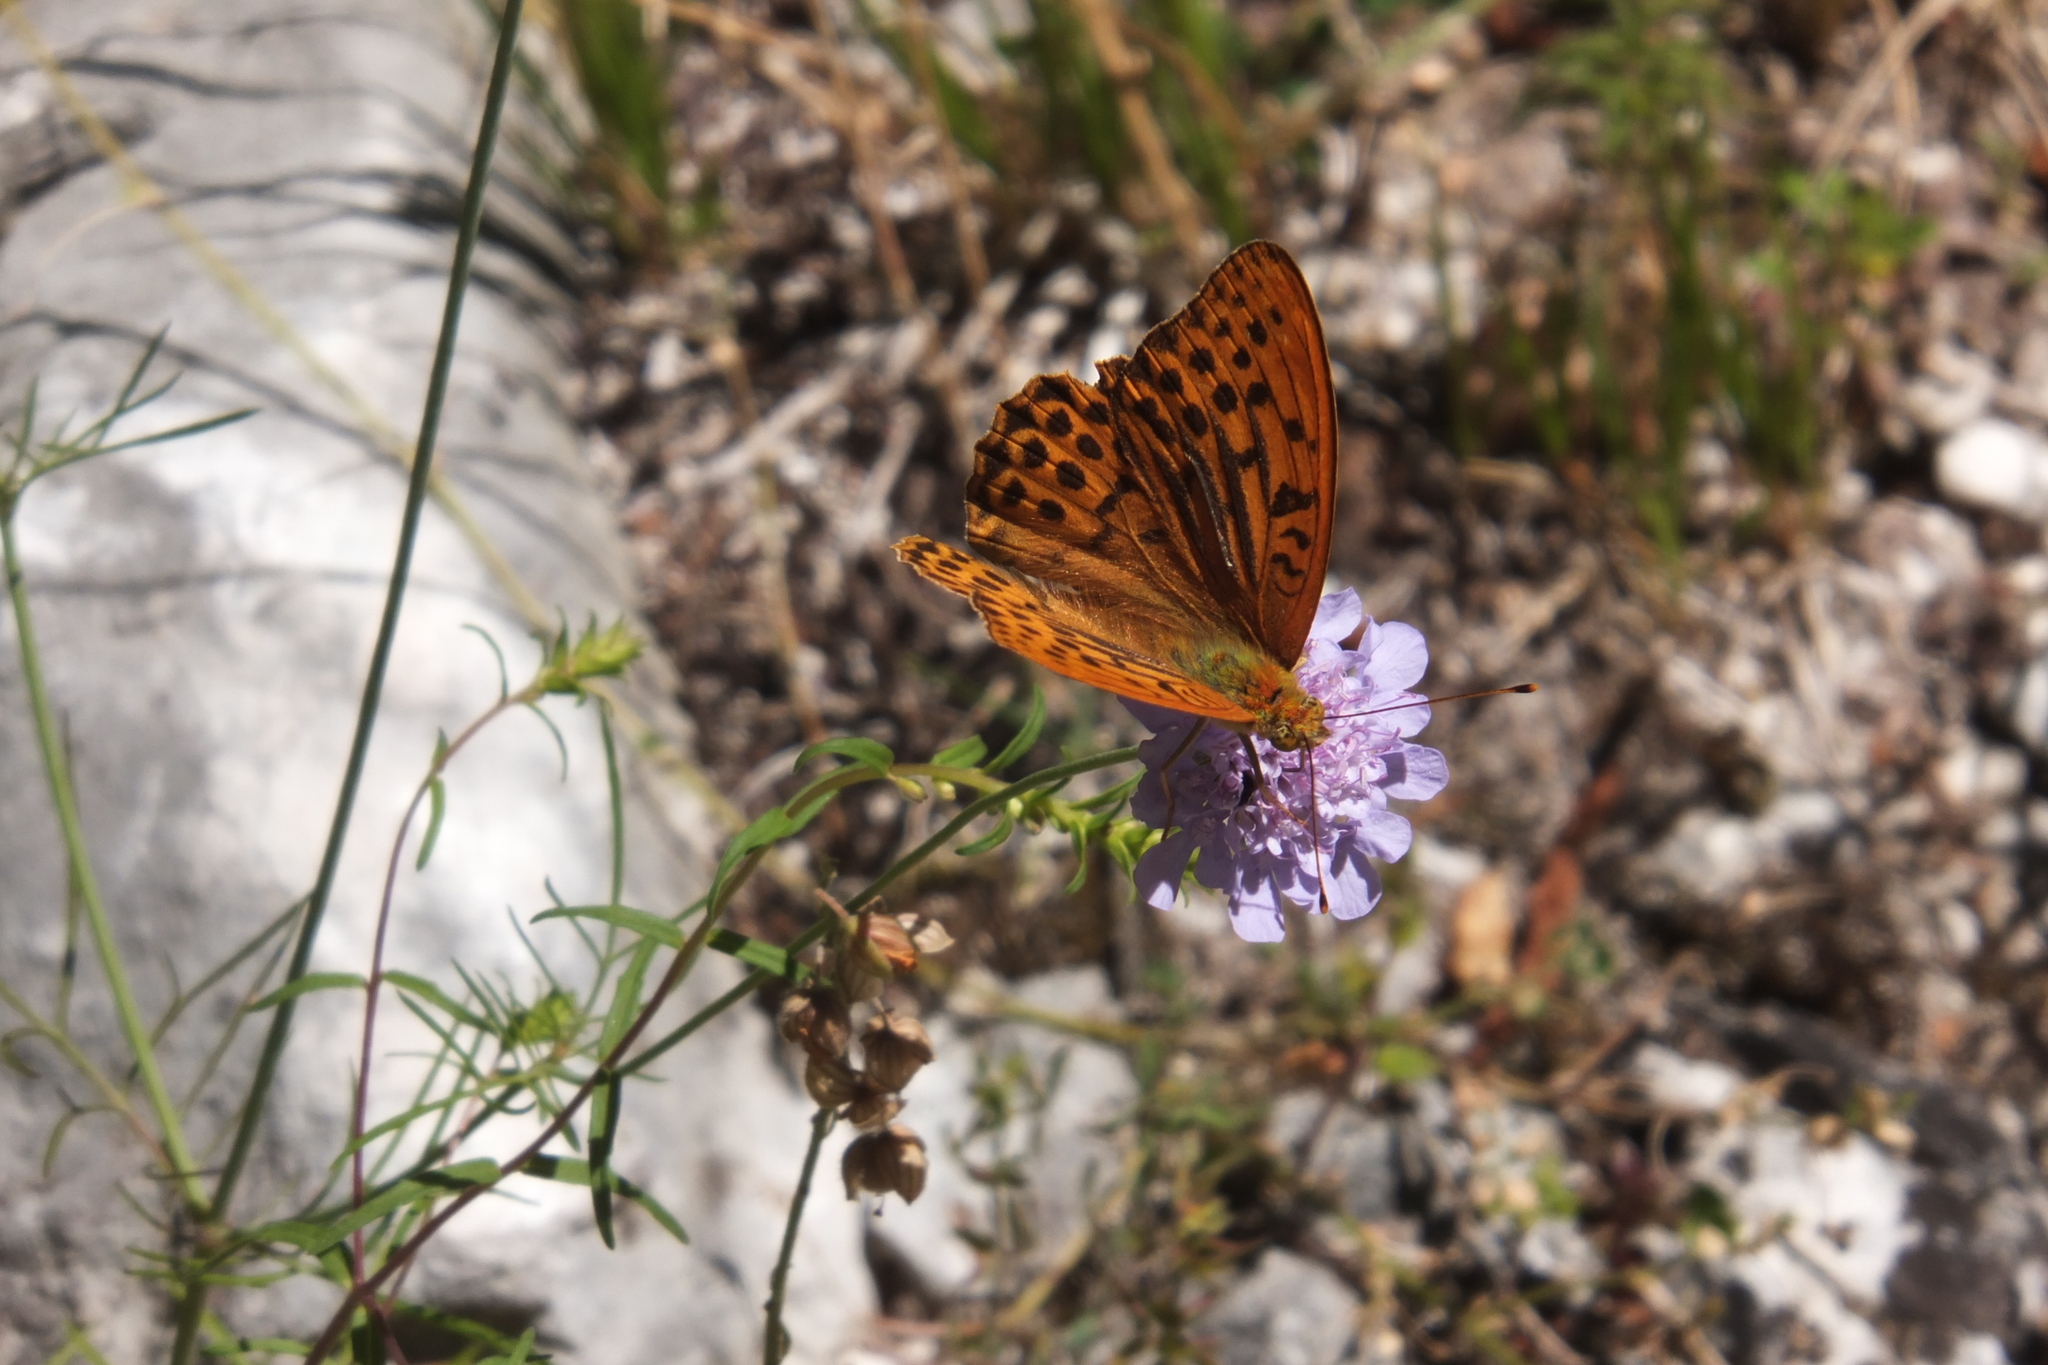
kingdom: Animalia
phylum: Arthropoda
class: Insecta
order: Lepidoptera
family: Nymphalidae
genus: Argynnis
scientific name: Argynnis paphia
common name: Silver-washed fritillary
